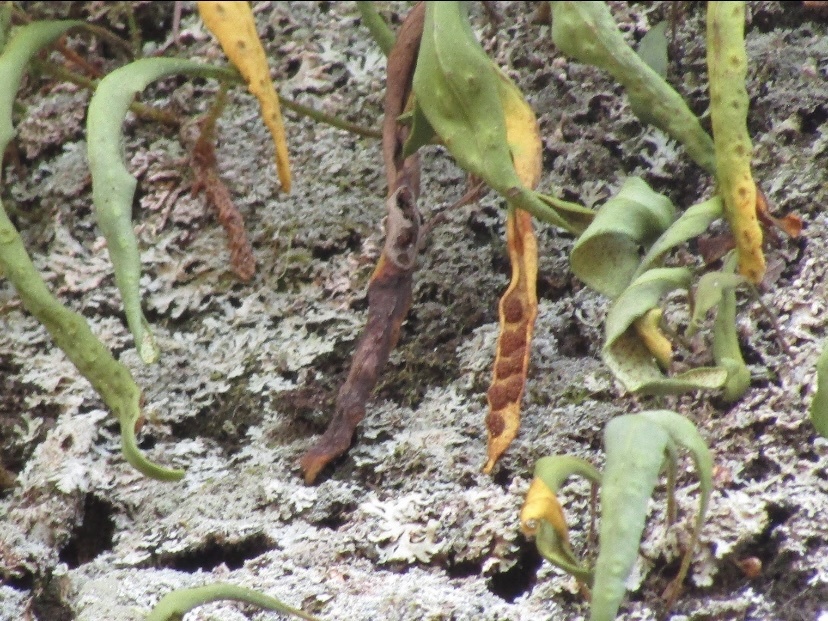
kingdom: Plantae
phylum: Tracheophyta
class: Polypodiopsida
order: Polypodiales
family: Polypodiaceae
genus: Pleopeltis
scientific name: Pleopeltis macrocarpa
